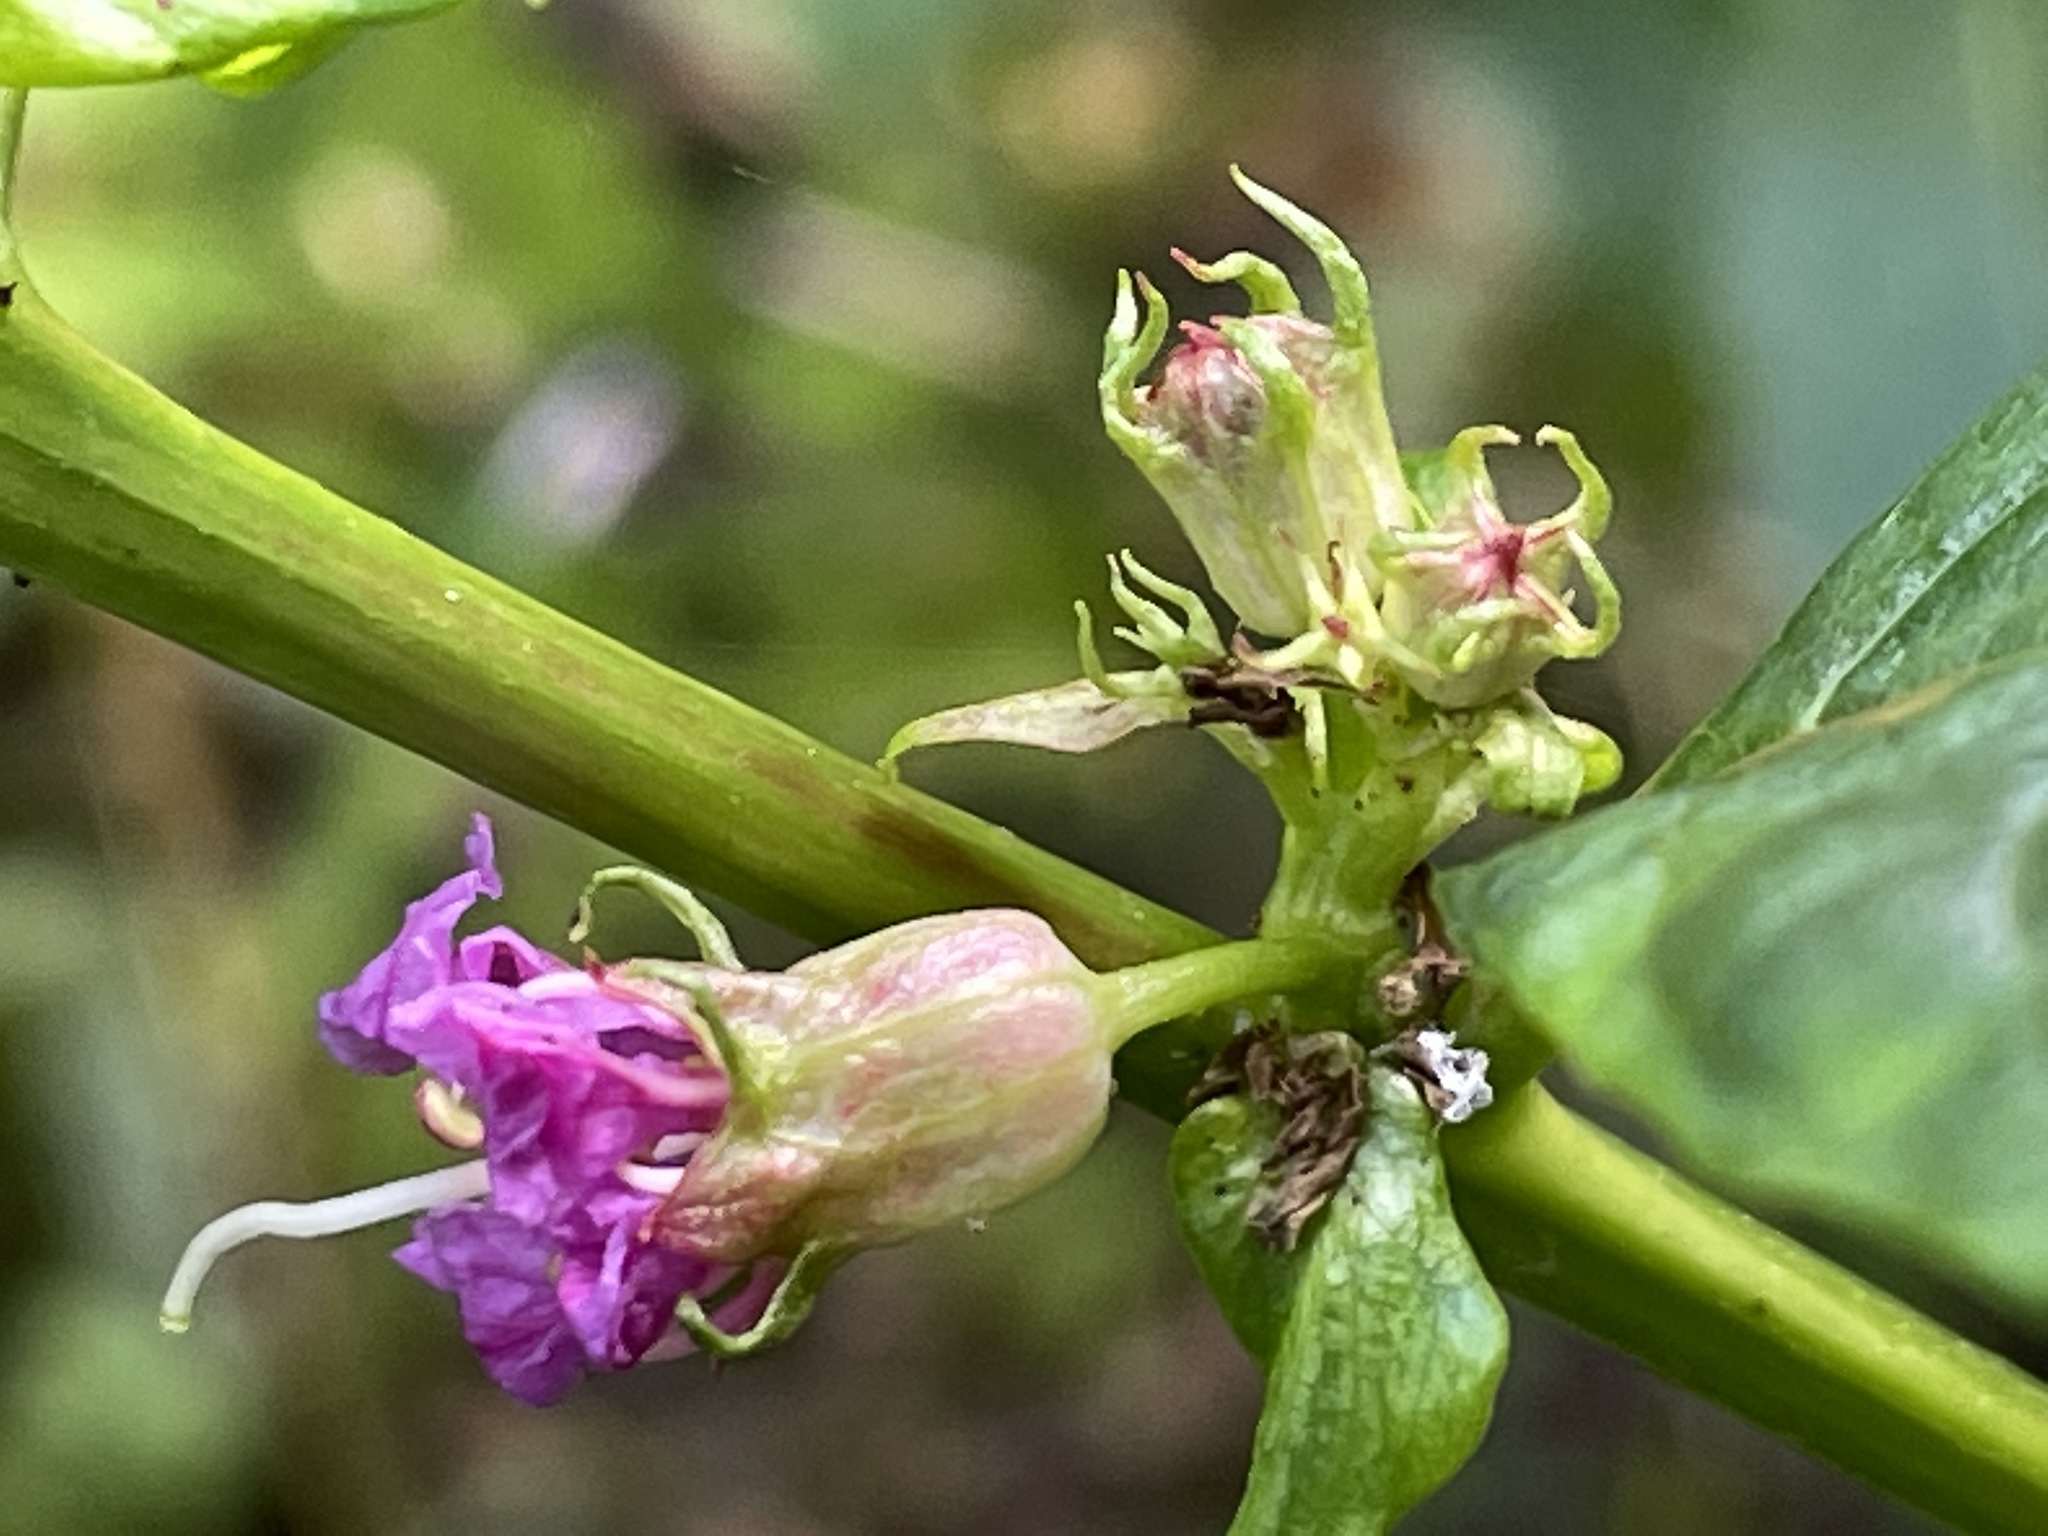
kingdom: Plantae
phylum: Tracheophyta
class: Magnoliopsida
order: Myrtales
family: Lythraceae
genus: Decodon
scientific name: Decodon verticillatus
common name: Hairy swamp loosestrife
